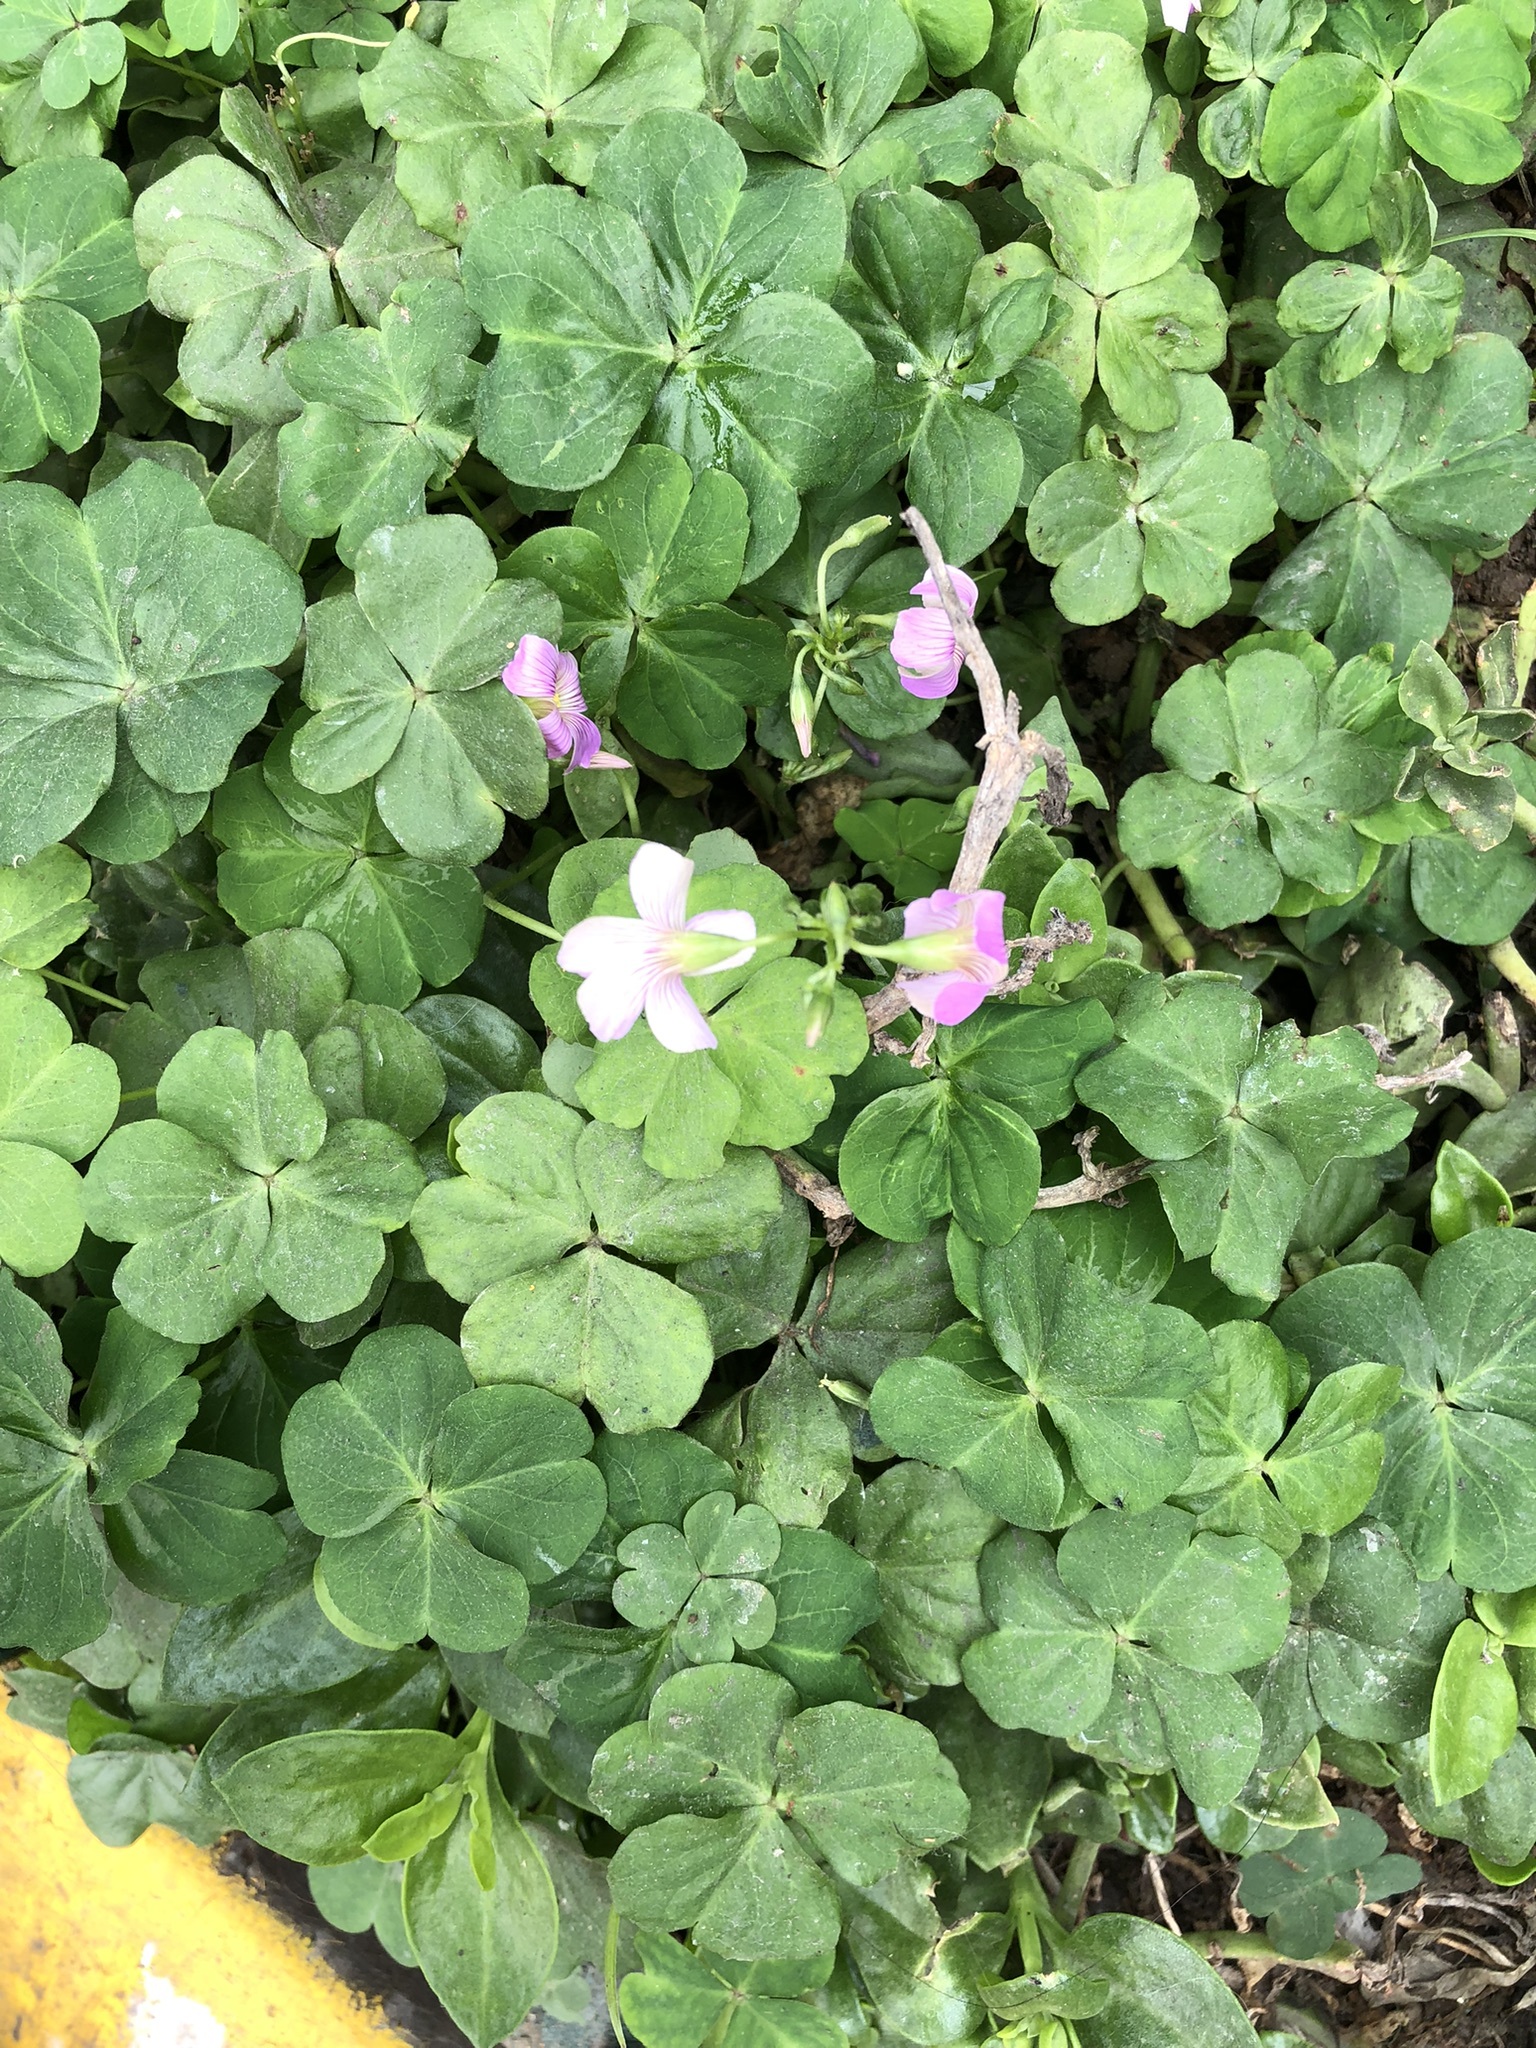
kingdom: Plantae
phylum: Tracheophyta
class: Magnoliopsida
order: Oxalidales
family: Oxalidaceae
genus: Oxalis
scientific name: Oxalis debilis
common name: Large-flowered pink-sorrel
